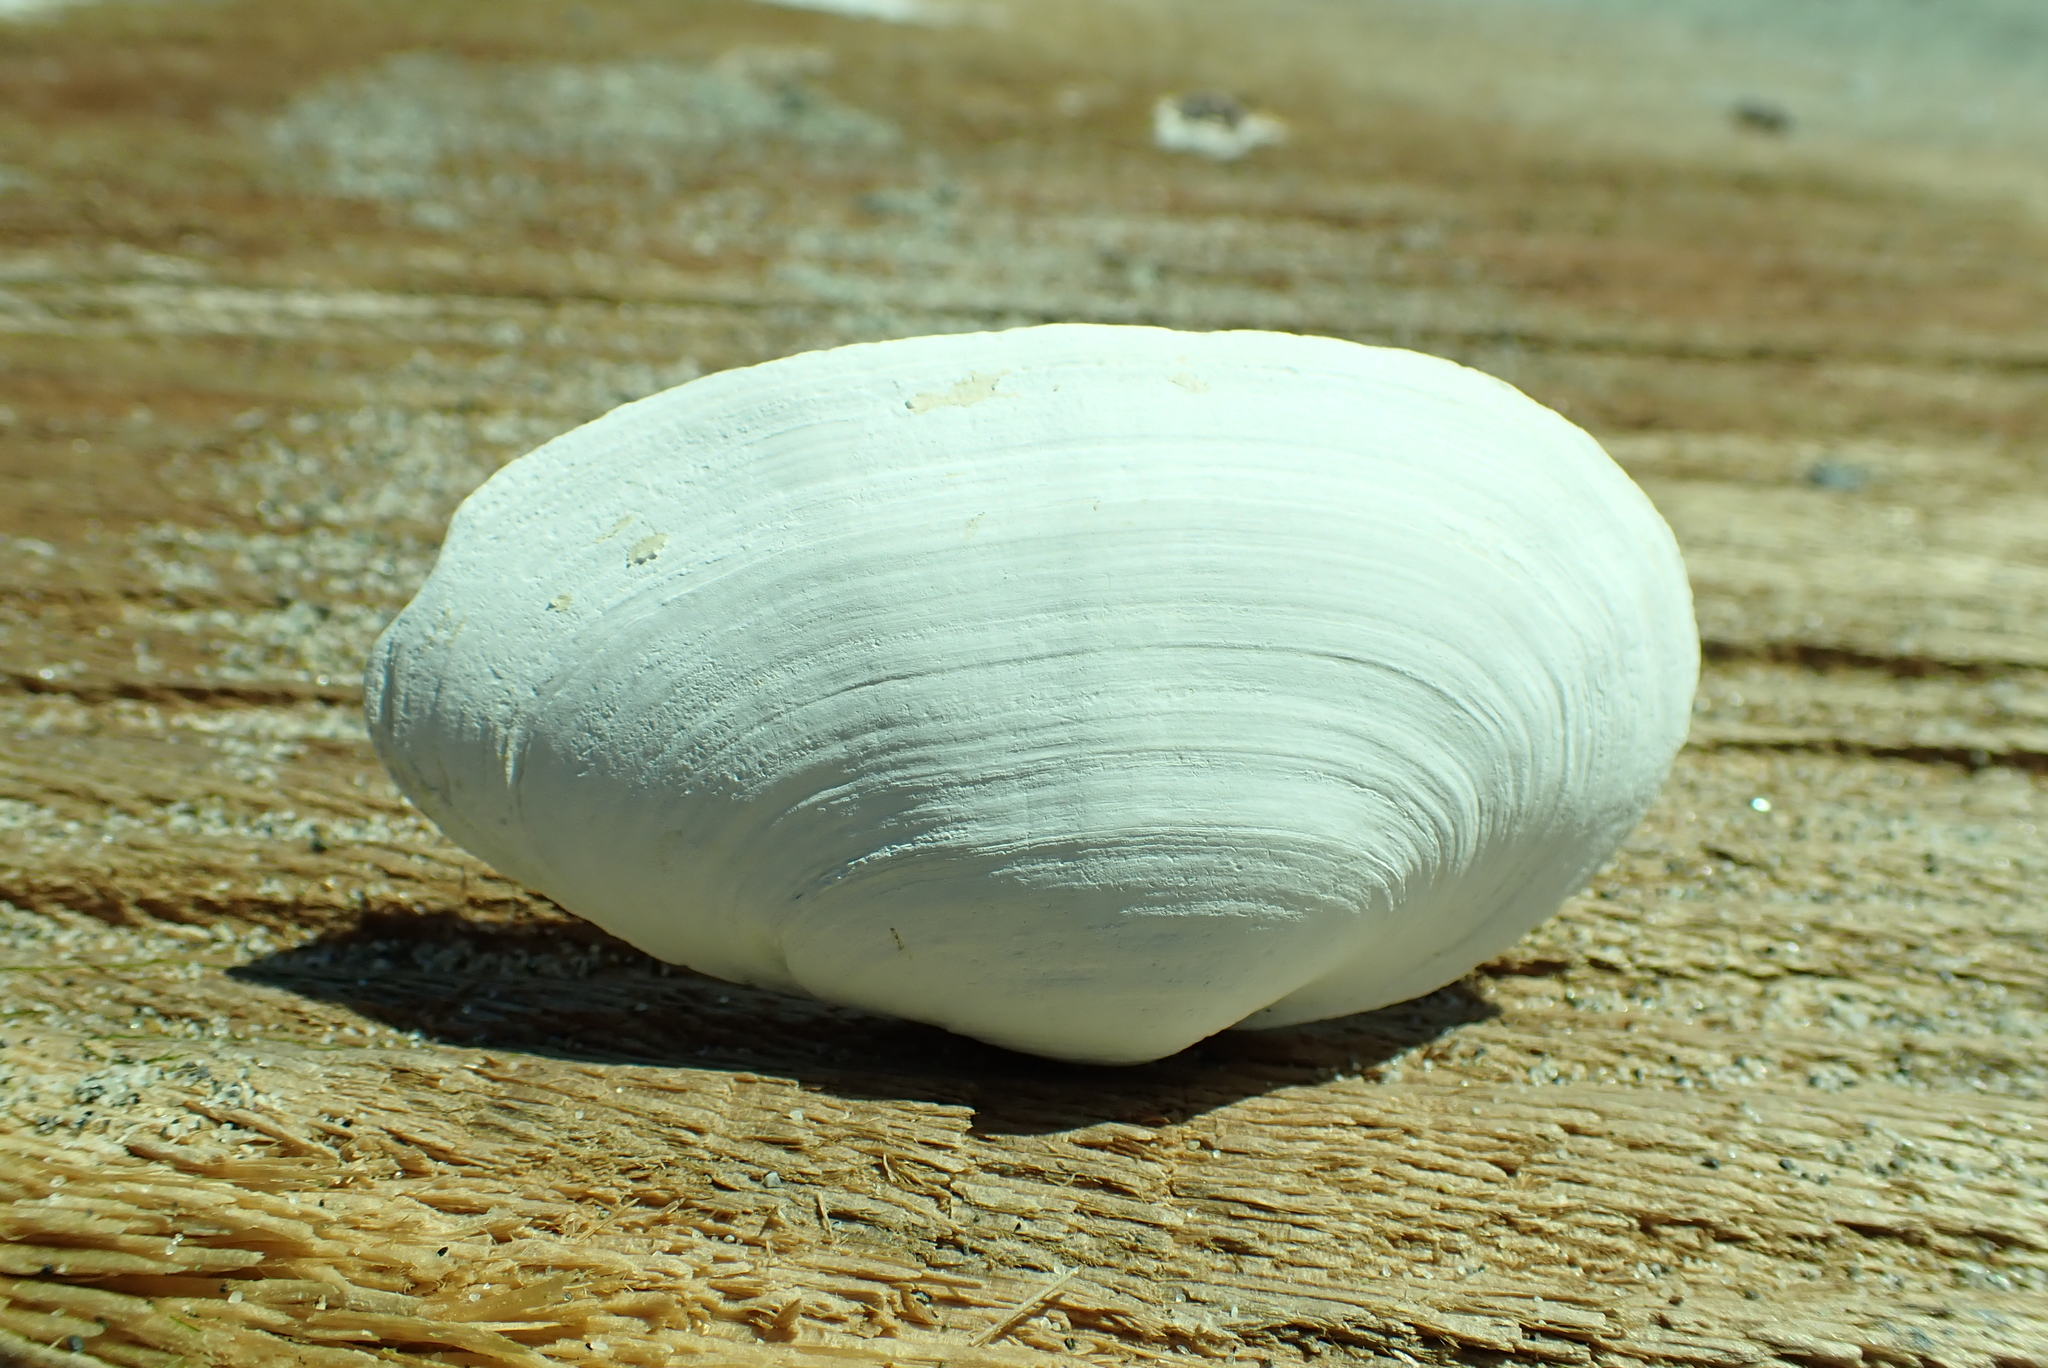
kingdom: Animalia
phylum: Mollusca
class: Bivalvia
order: Myida
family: Myidae
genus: Mya
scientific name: Mya arenaria
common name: Soft-shelled clam
